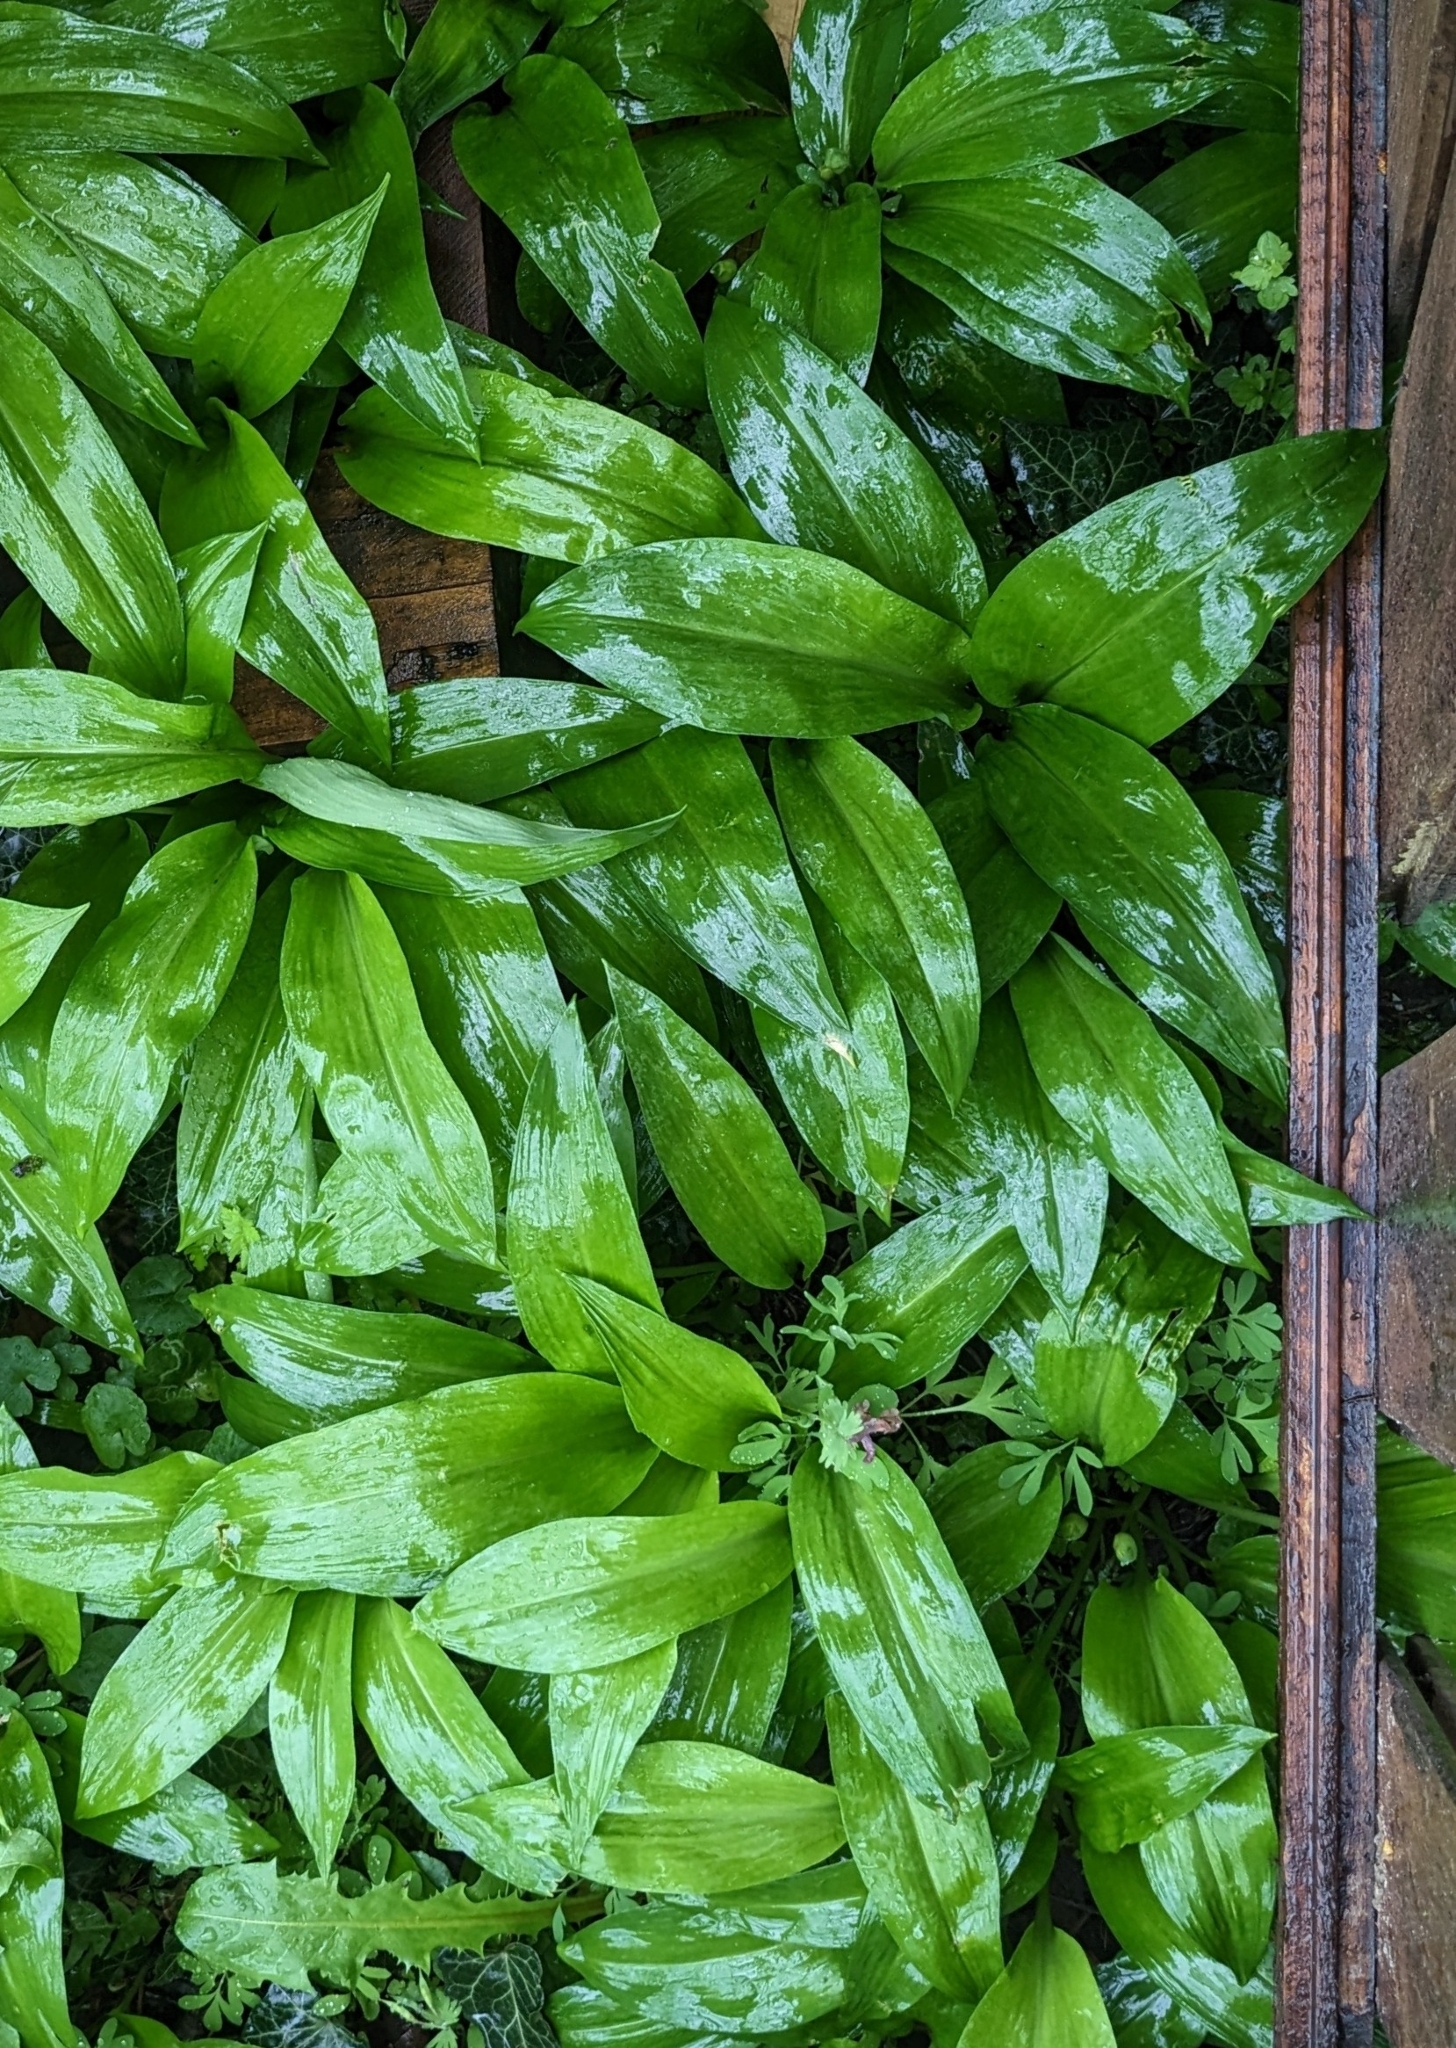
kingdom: Plantae
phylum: Tracheophyta
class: Liliopsida
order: Asparagales
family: Amaryllidaceae
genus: Allium
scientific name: Allium ursinum
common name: Ramsons
